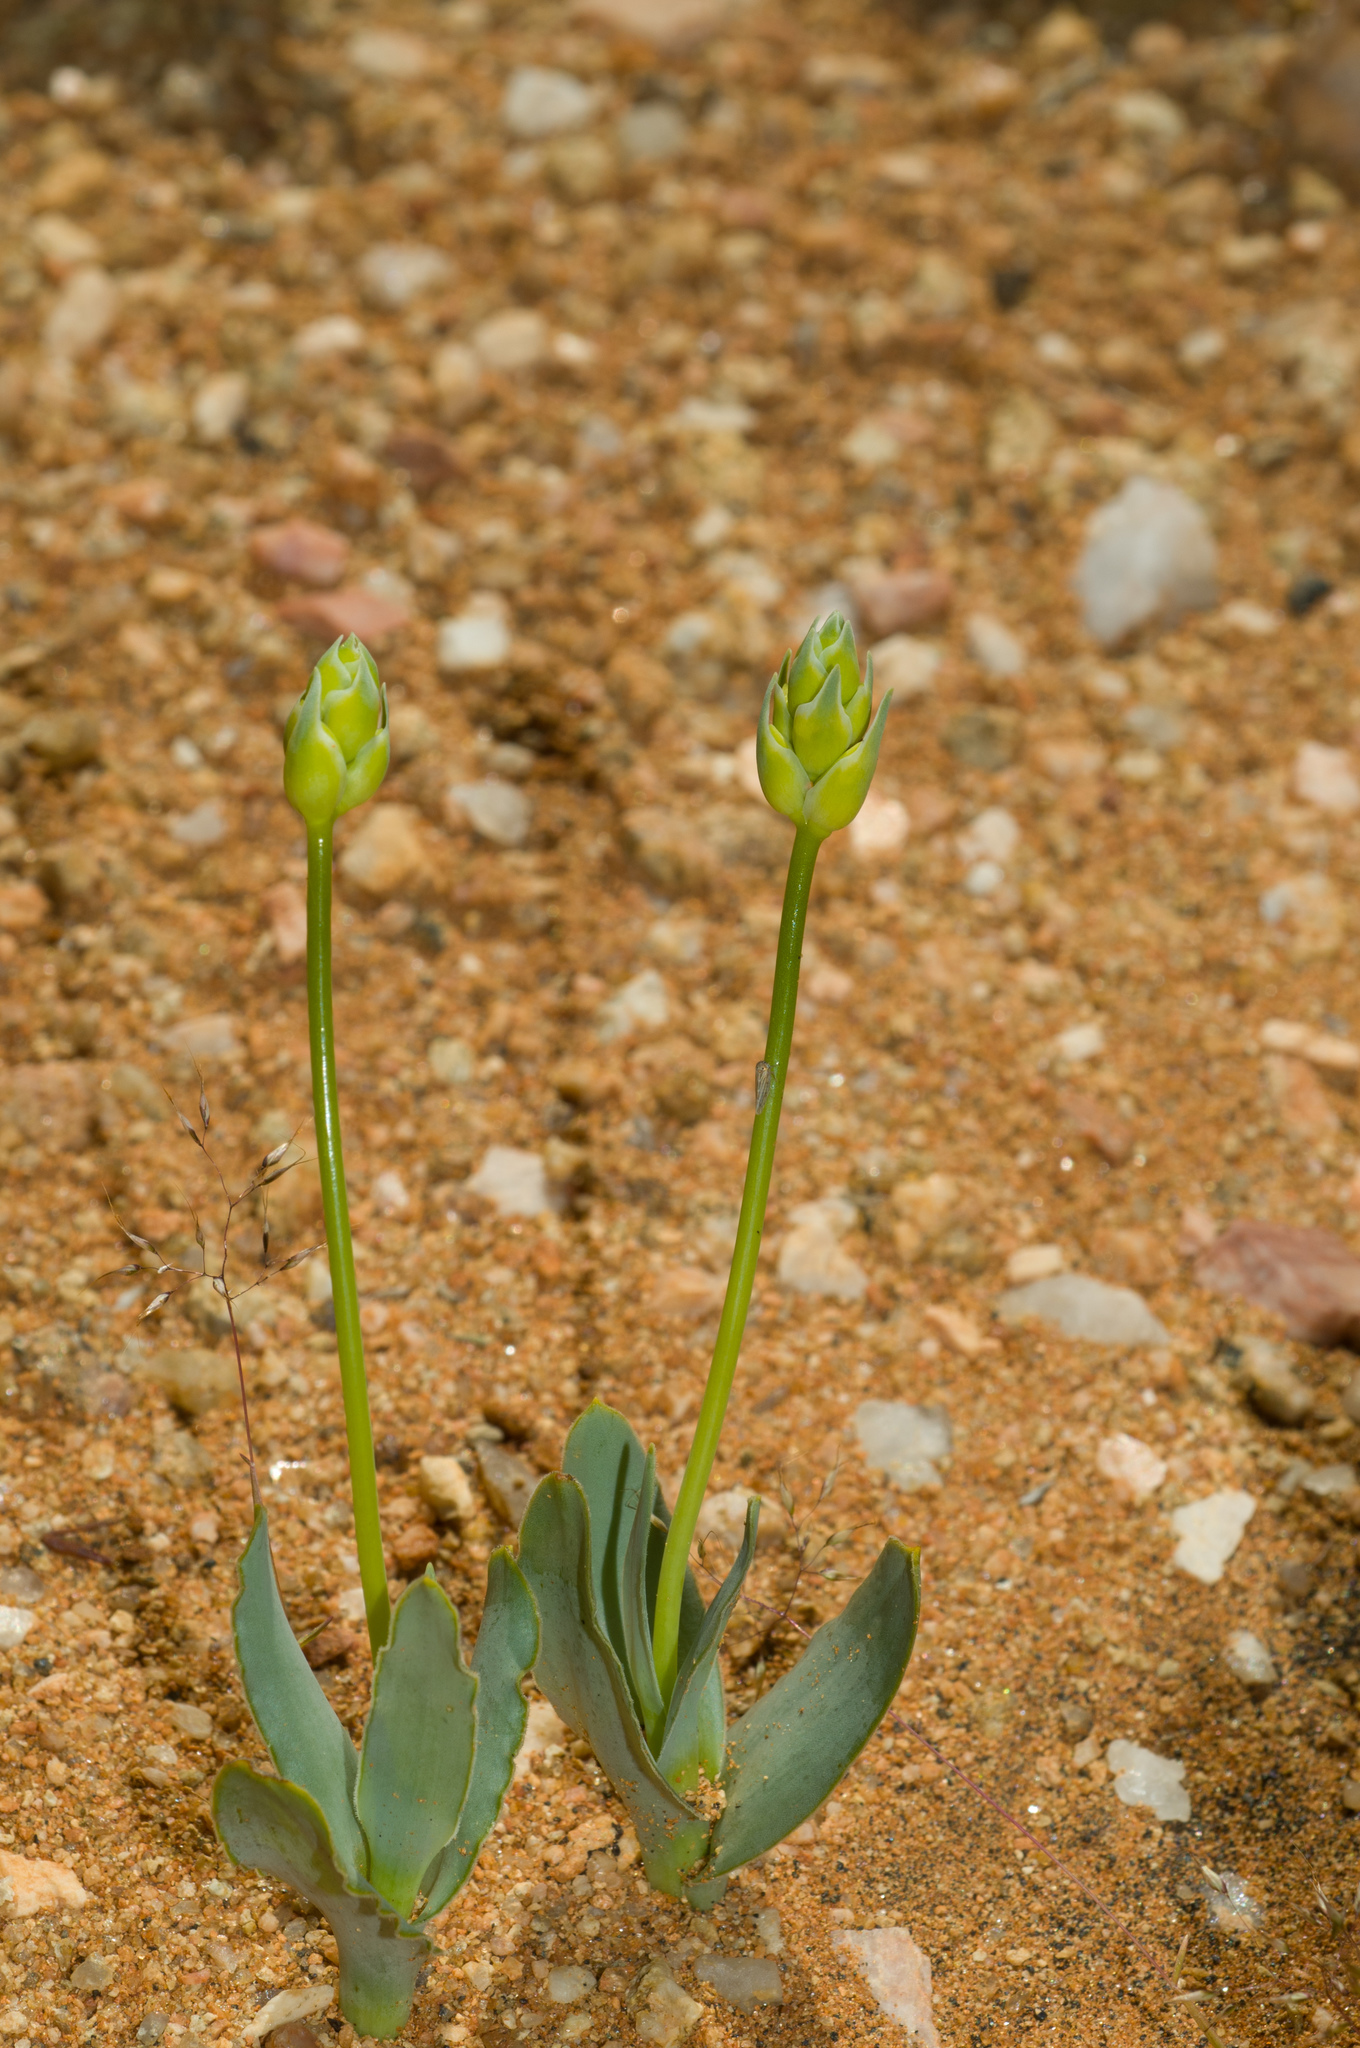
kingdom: Plantae
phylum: Tracheophyta
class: Liliopsida
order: Asparagales
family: Asparagaceae
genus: Ornithogalum
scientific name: Ornithogalum pruinosum
